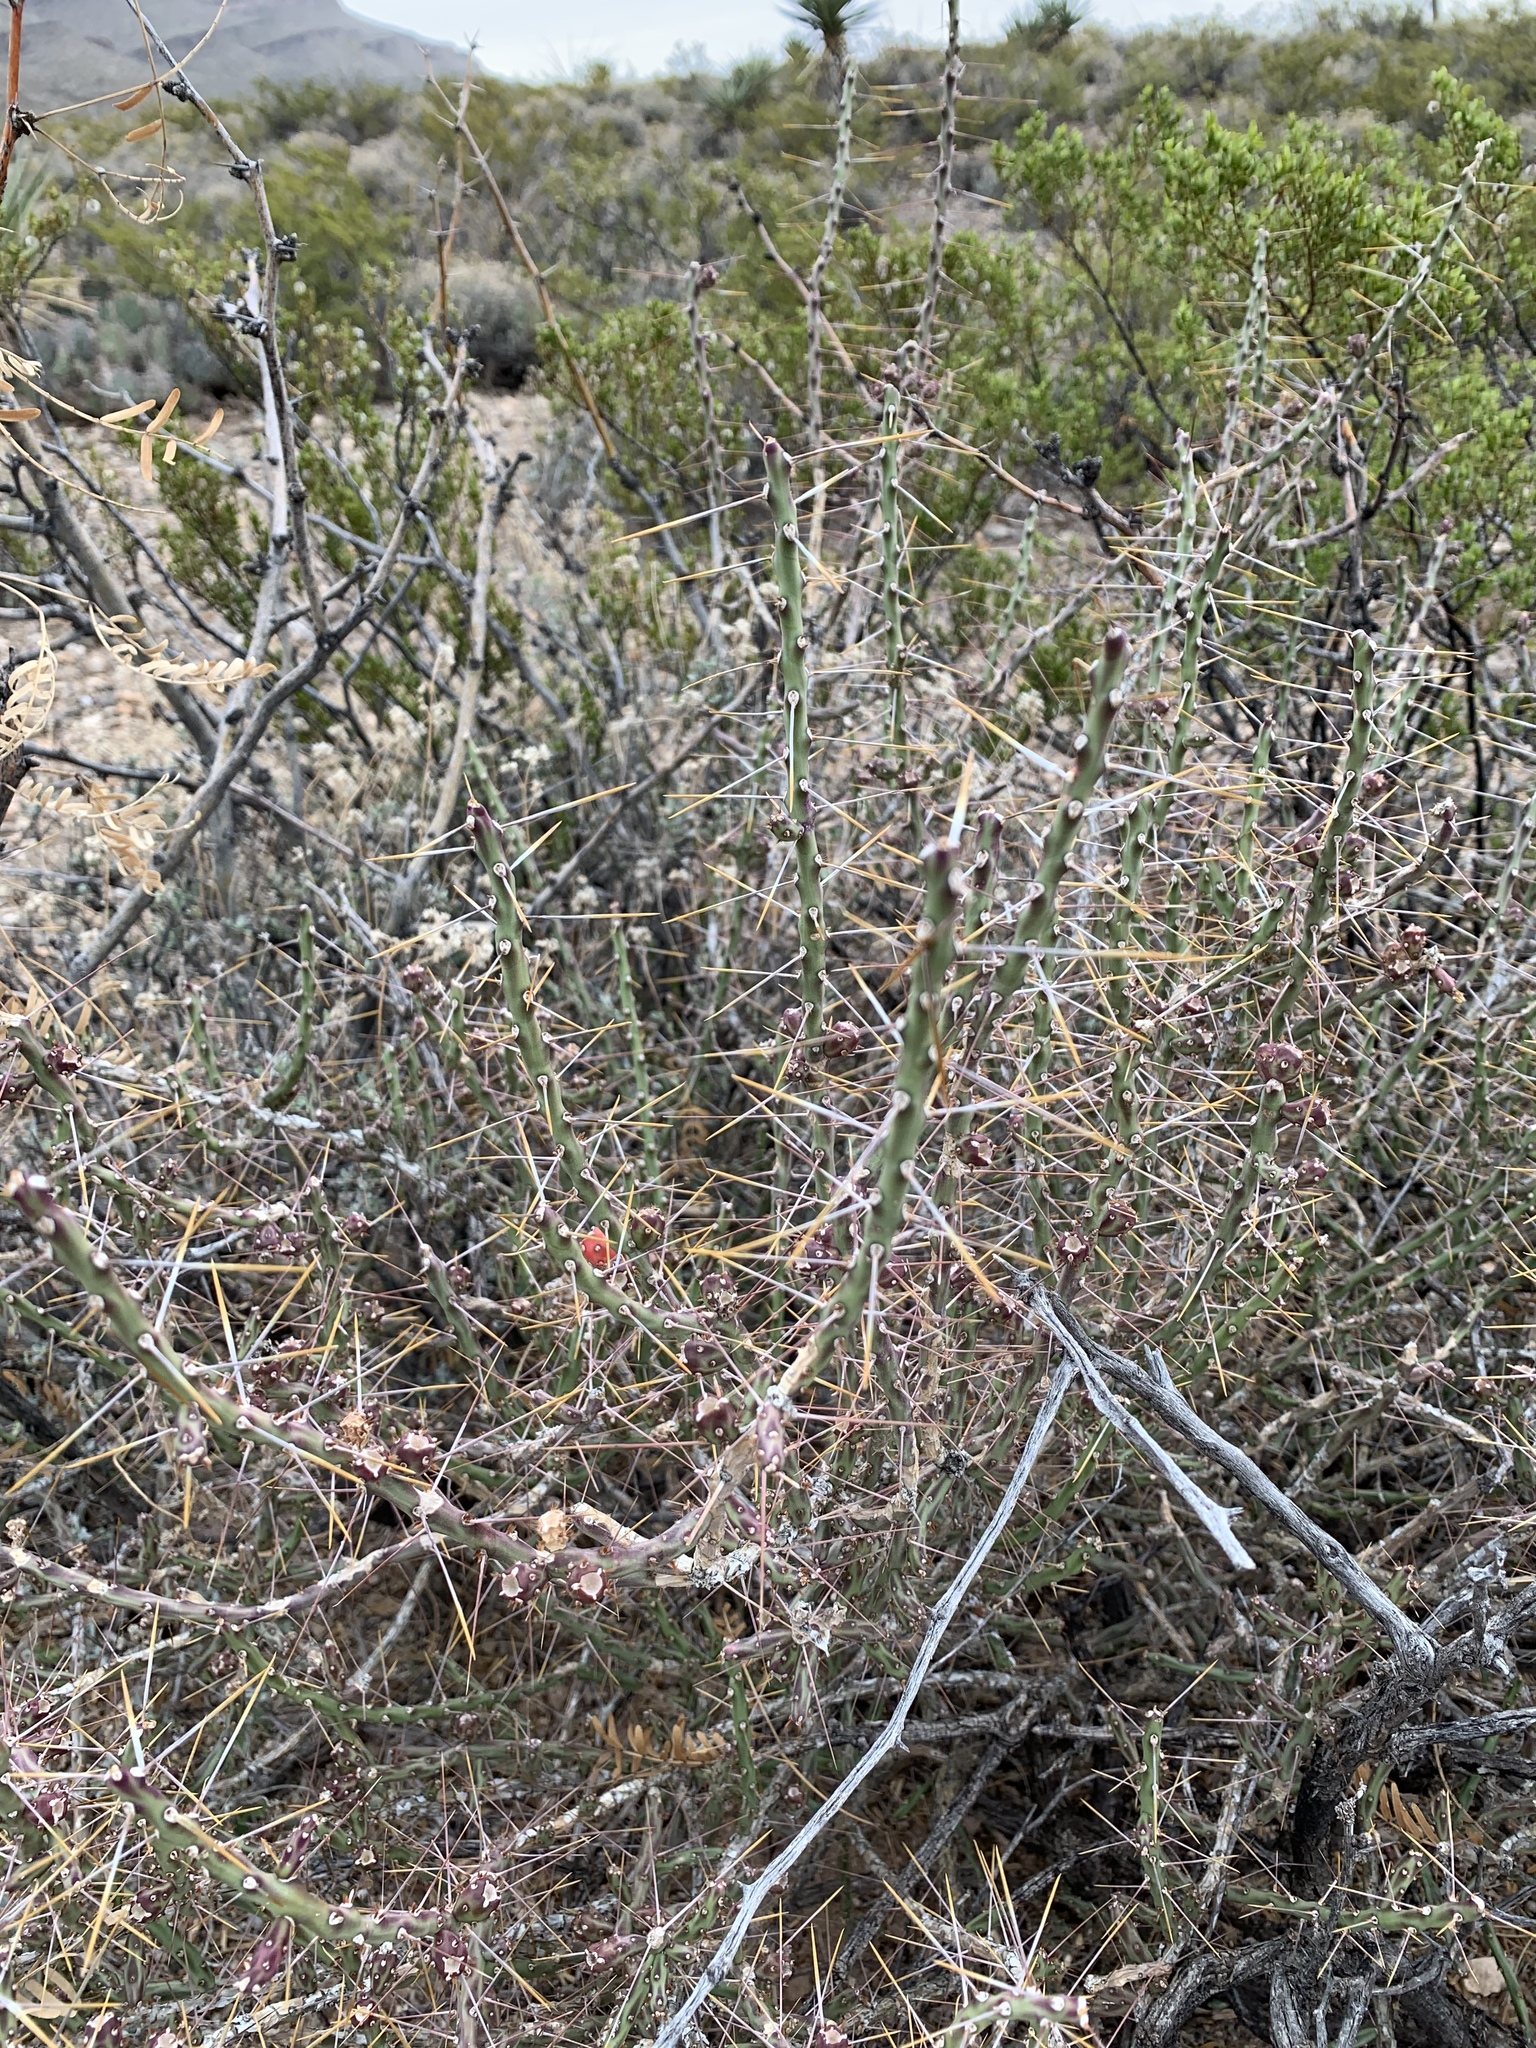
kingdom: Plantae
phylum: Tracheophyta
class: Magnoliopsida
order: Caryophyllales
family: Cactaceae
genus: Cylindropuntia
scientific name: Cylindropuntia leptocaulis
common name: Christmas cactus
